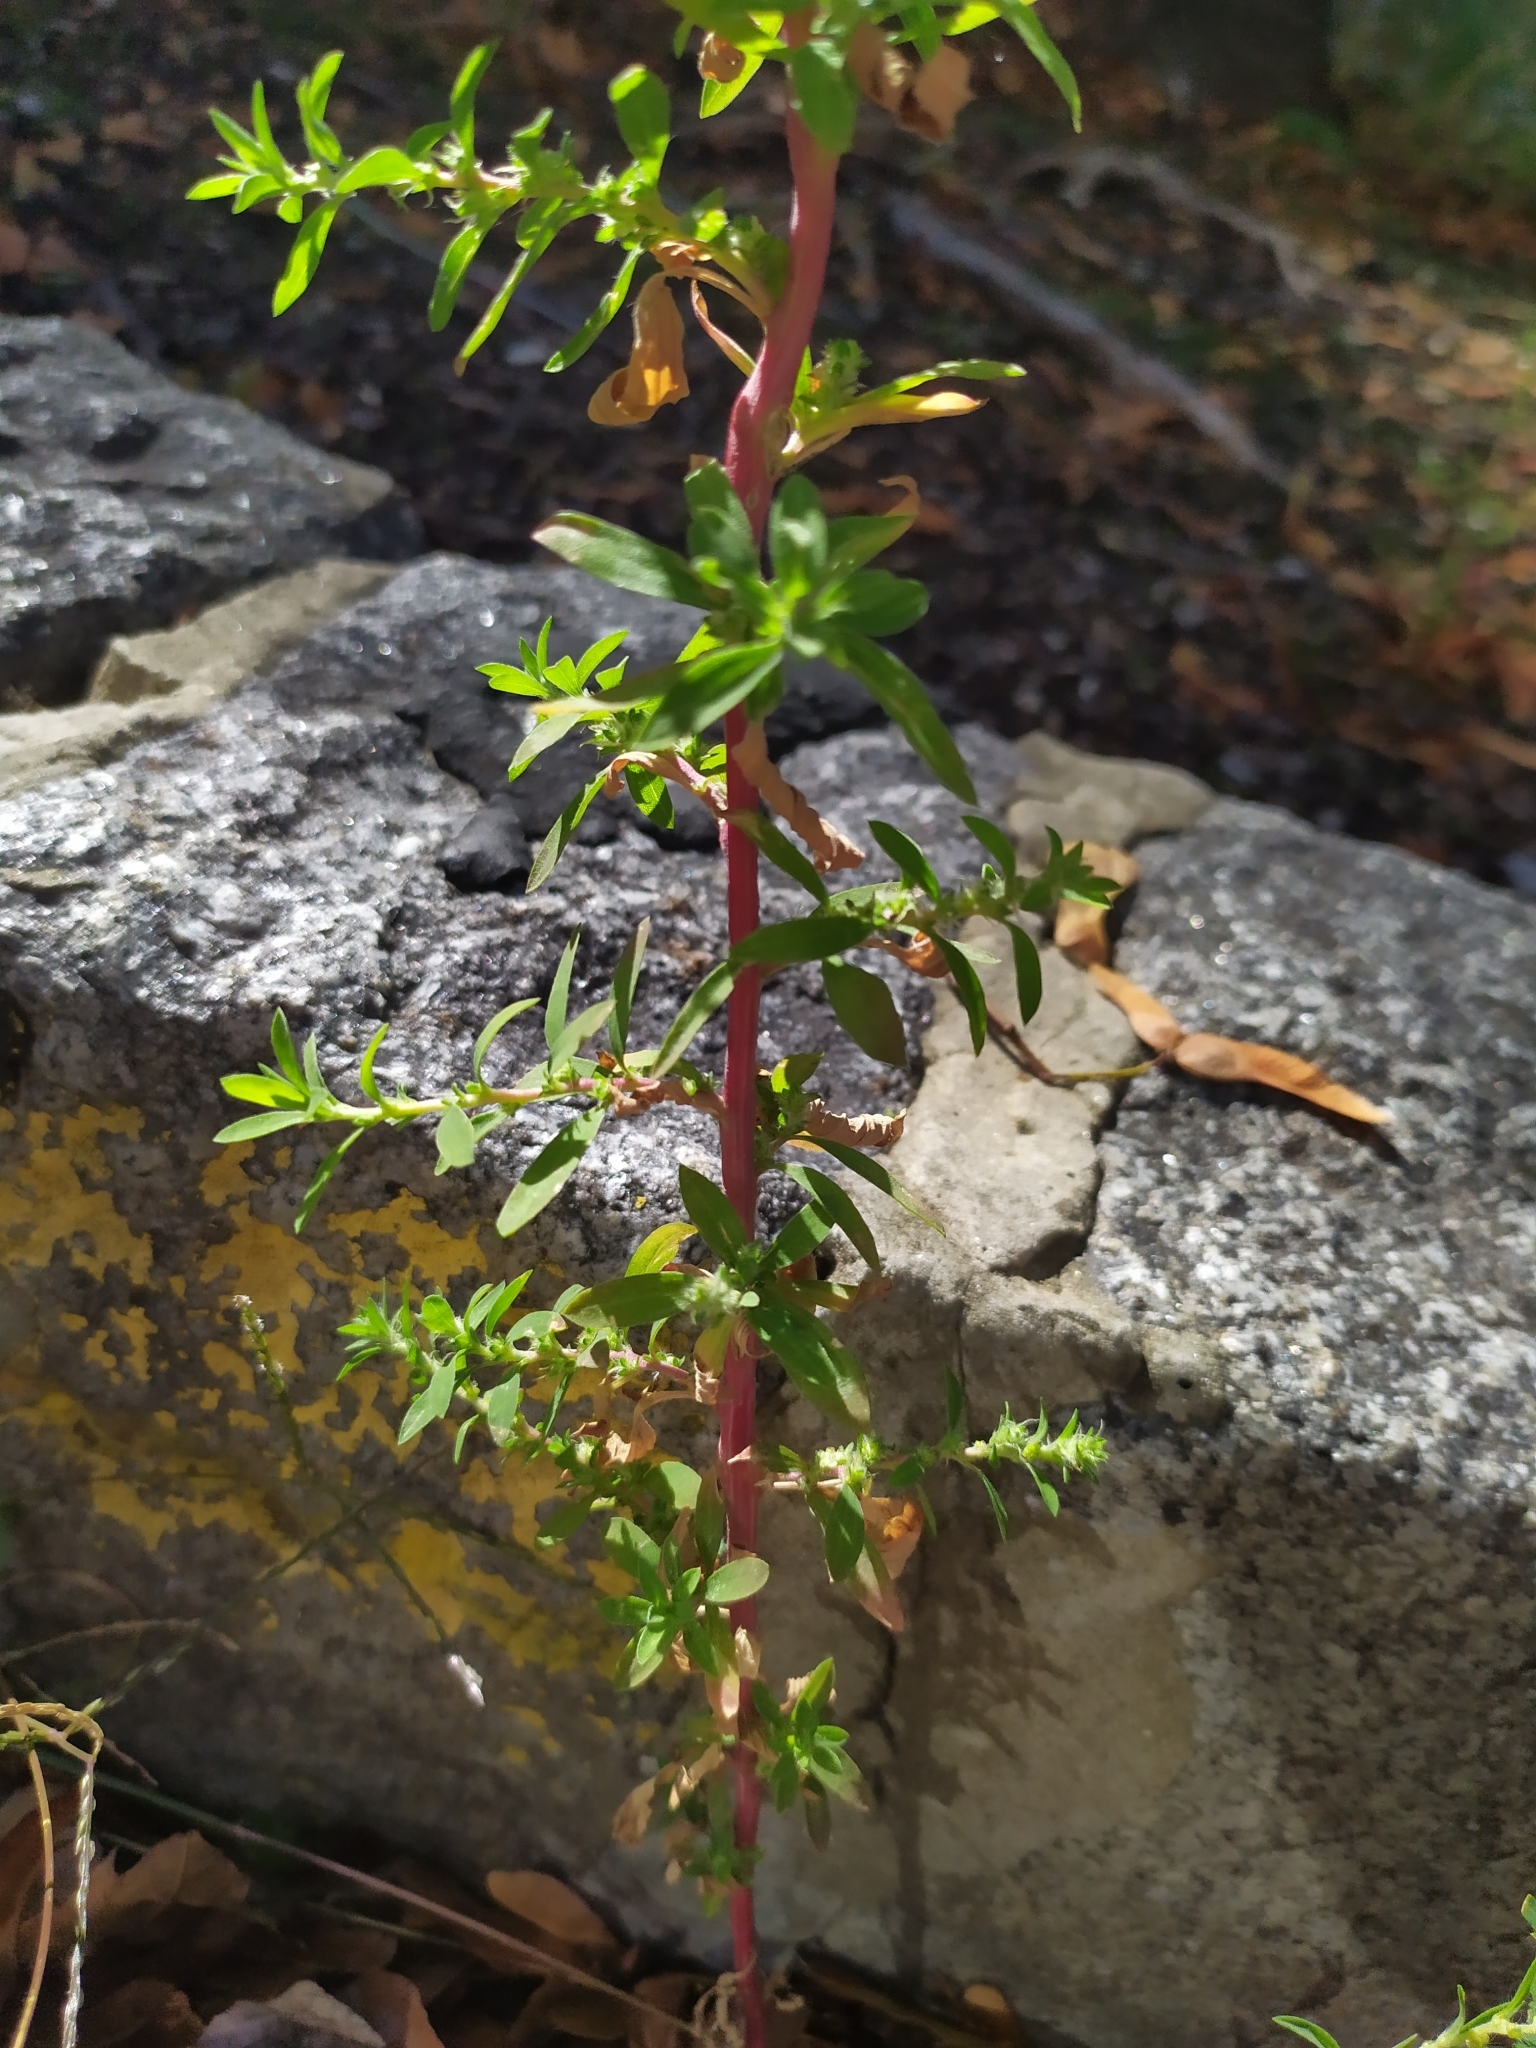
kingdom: Plantae
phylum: Tracheophyta
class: Magnoliopsida
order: Caryophyllales
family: Amaranthaceae
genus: Bassia
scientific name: Bassia scoparia
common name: Belvedere
